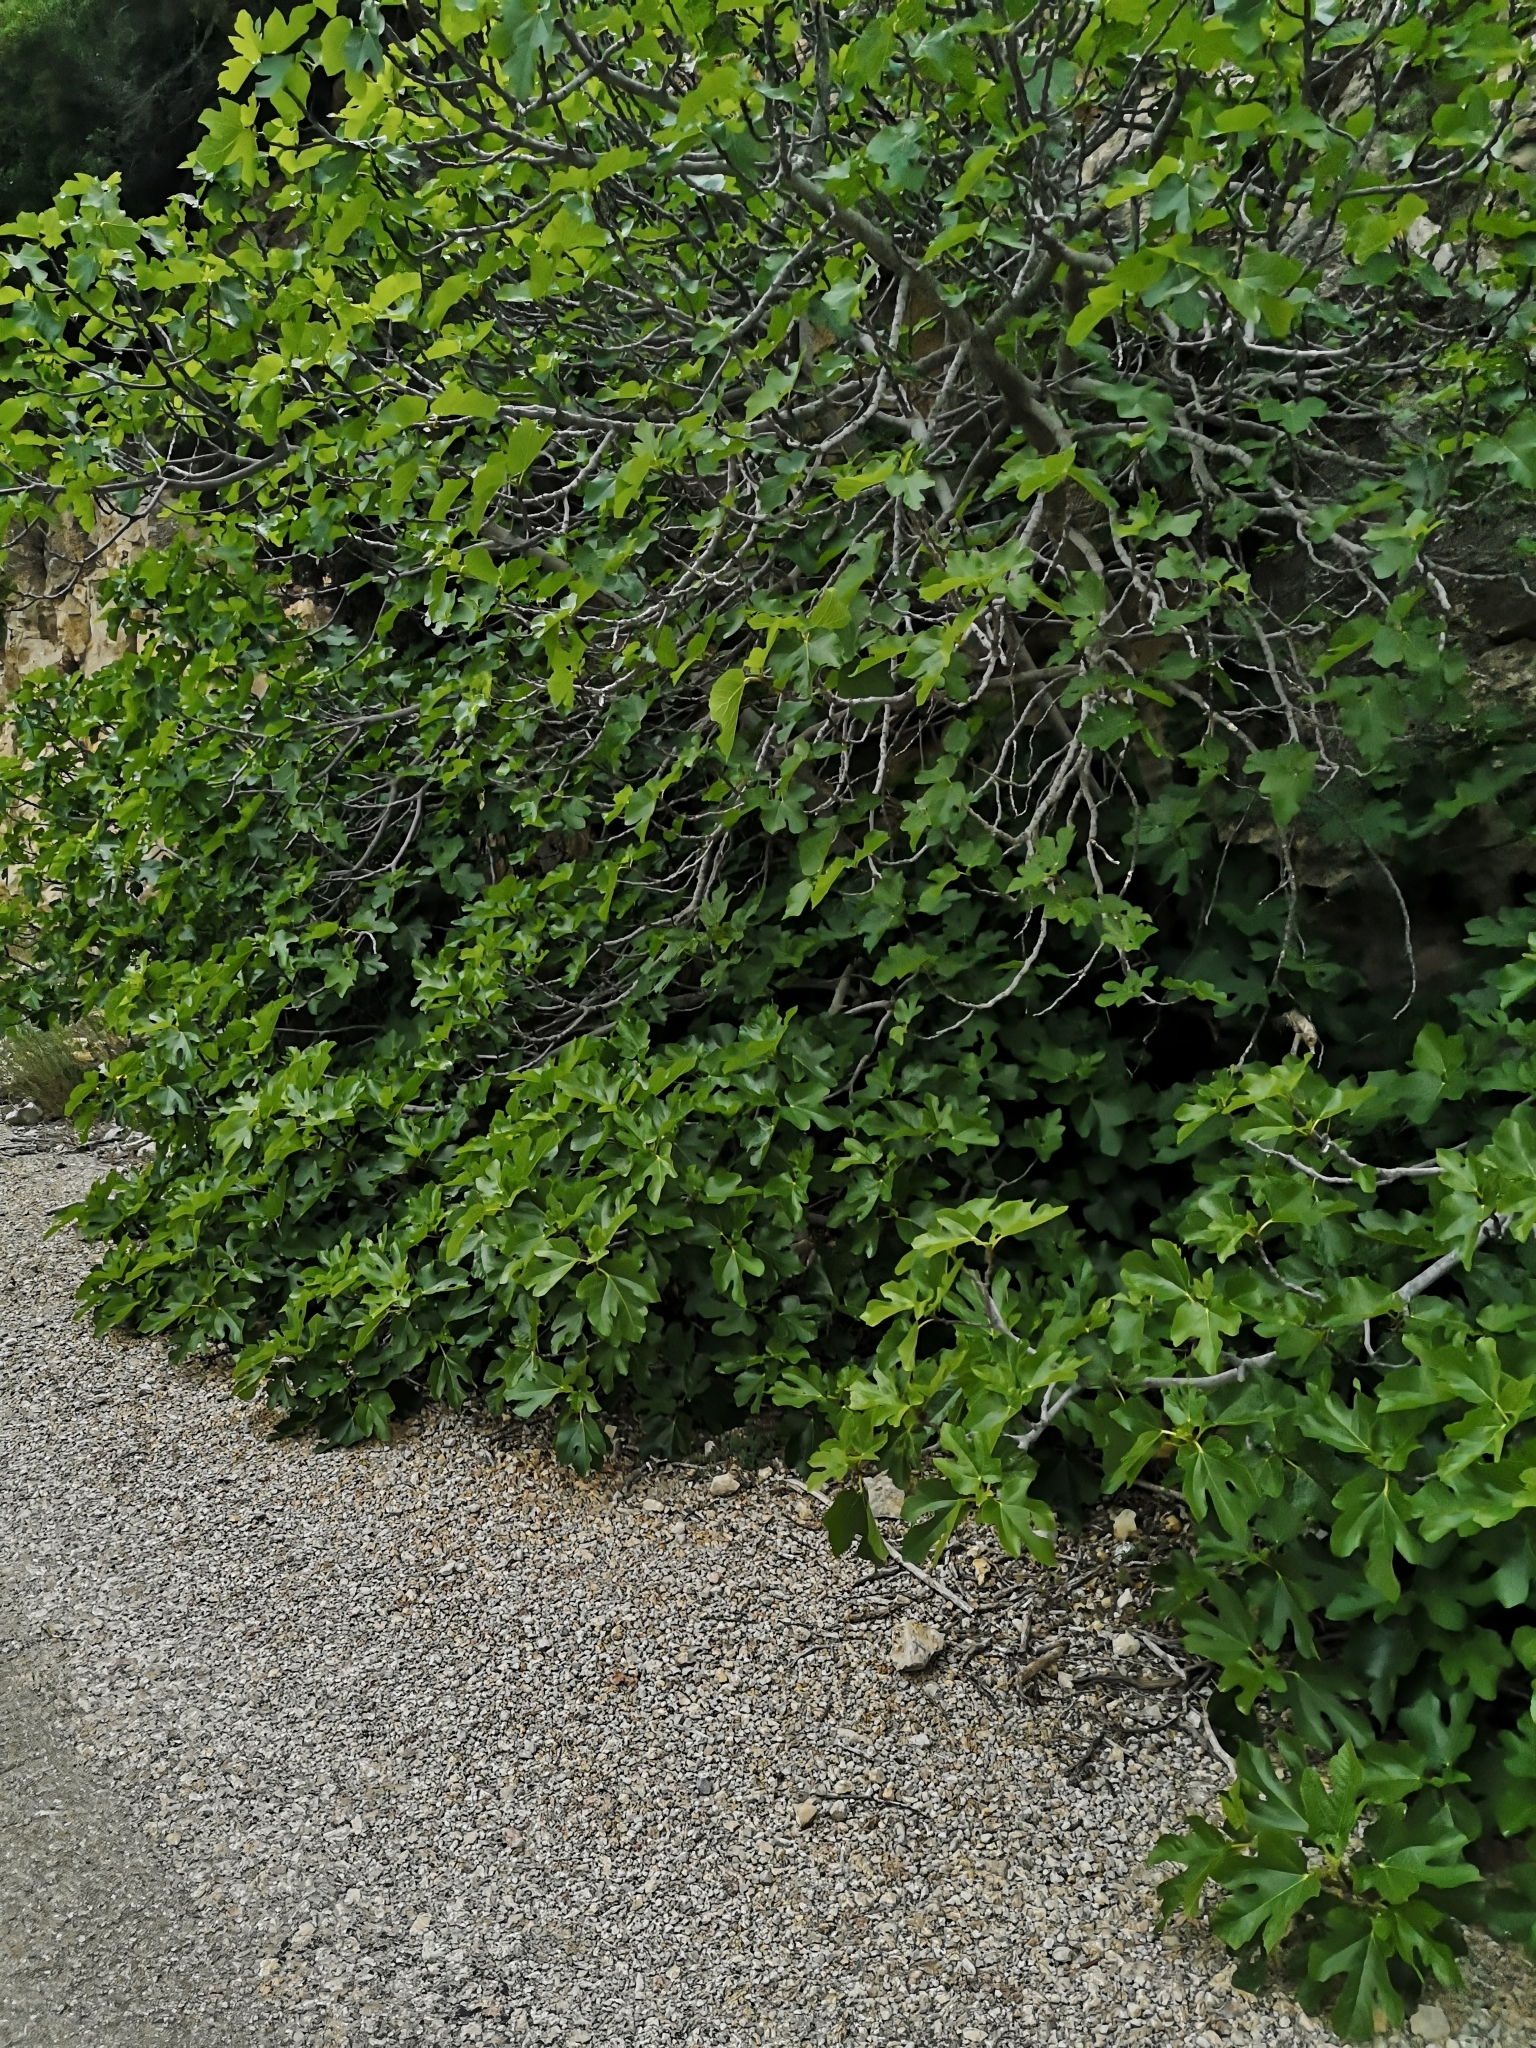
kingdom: Plantae
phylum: Tracheophyta
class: Magnoliopsida
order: Rosales
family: Moraceae
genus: Ficus
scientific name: Ficus carica
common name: Fig
